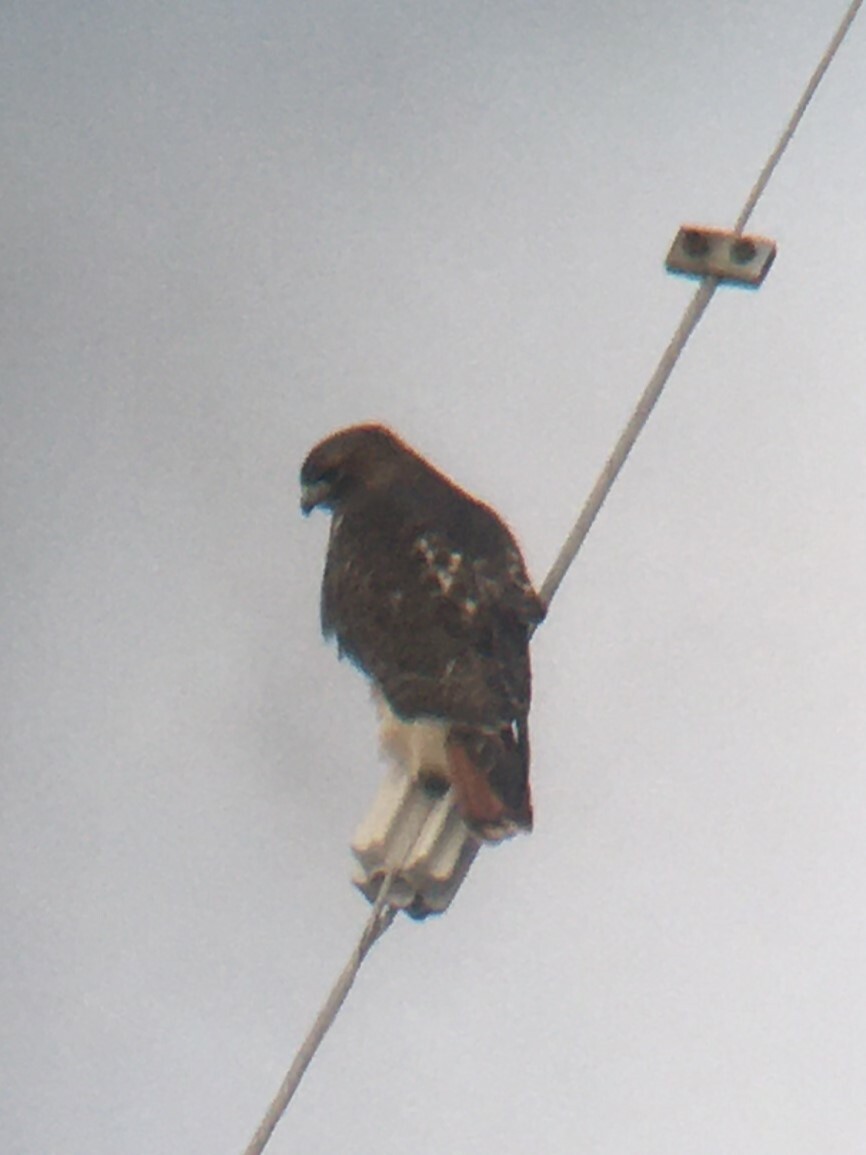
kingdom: Animalia
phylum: Chordata
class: Aves
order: Accipitriformes
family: Accipitridae
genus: Buteo
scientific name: Buteo jamaicensis
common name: Red-tailed hawk
